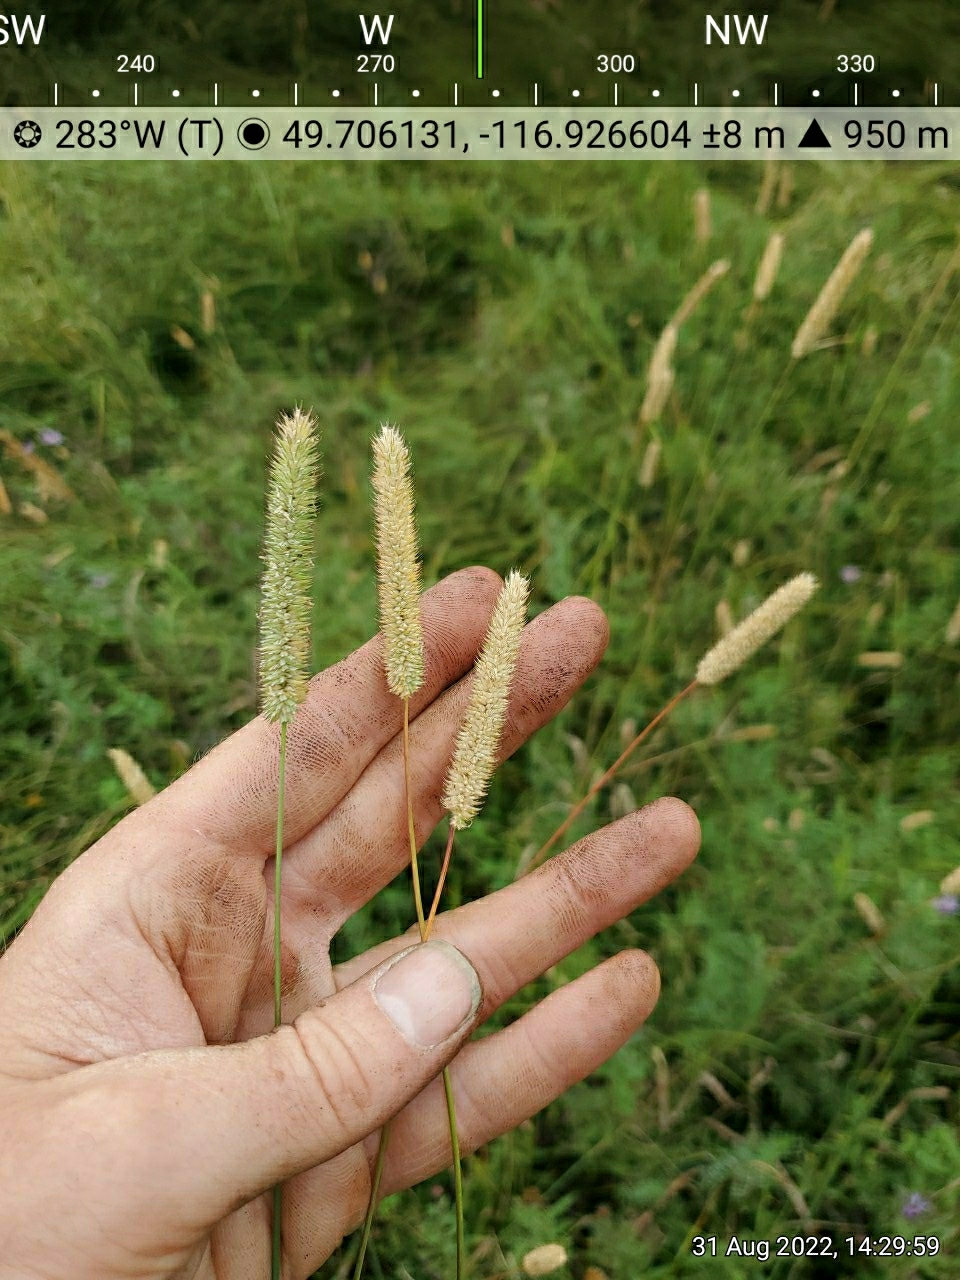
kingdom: Plantae
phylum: Tracheophyta
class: Liliopsida
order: Poales
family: Poaceae
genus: Phleum
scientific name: Phleum pratense
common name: Timothy grass
